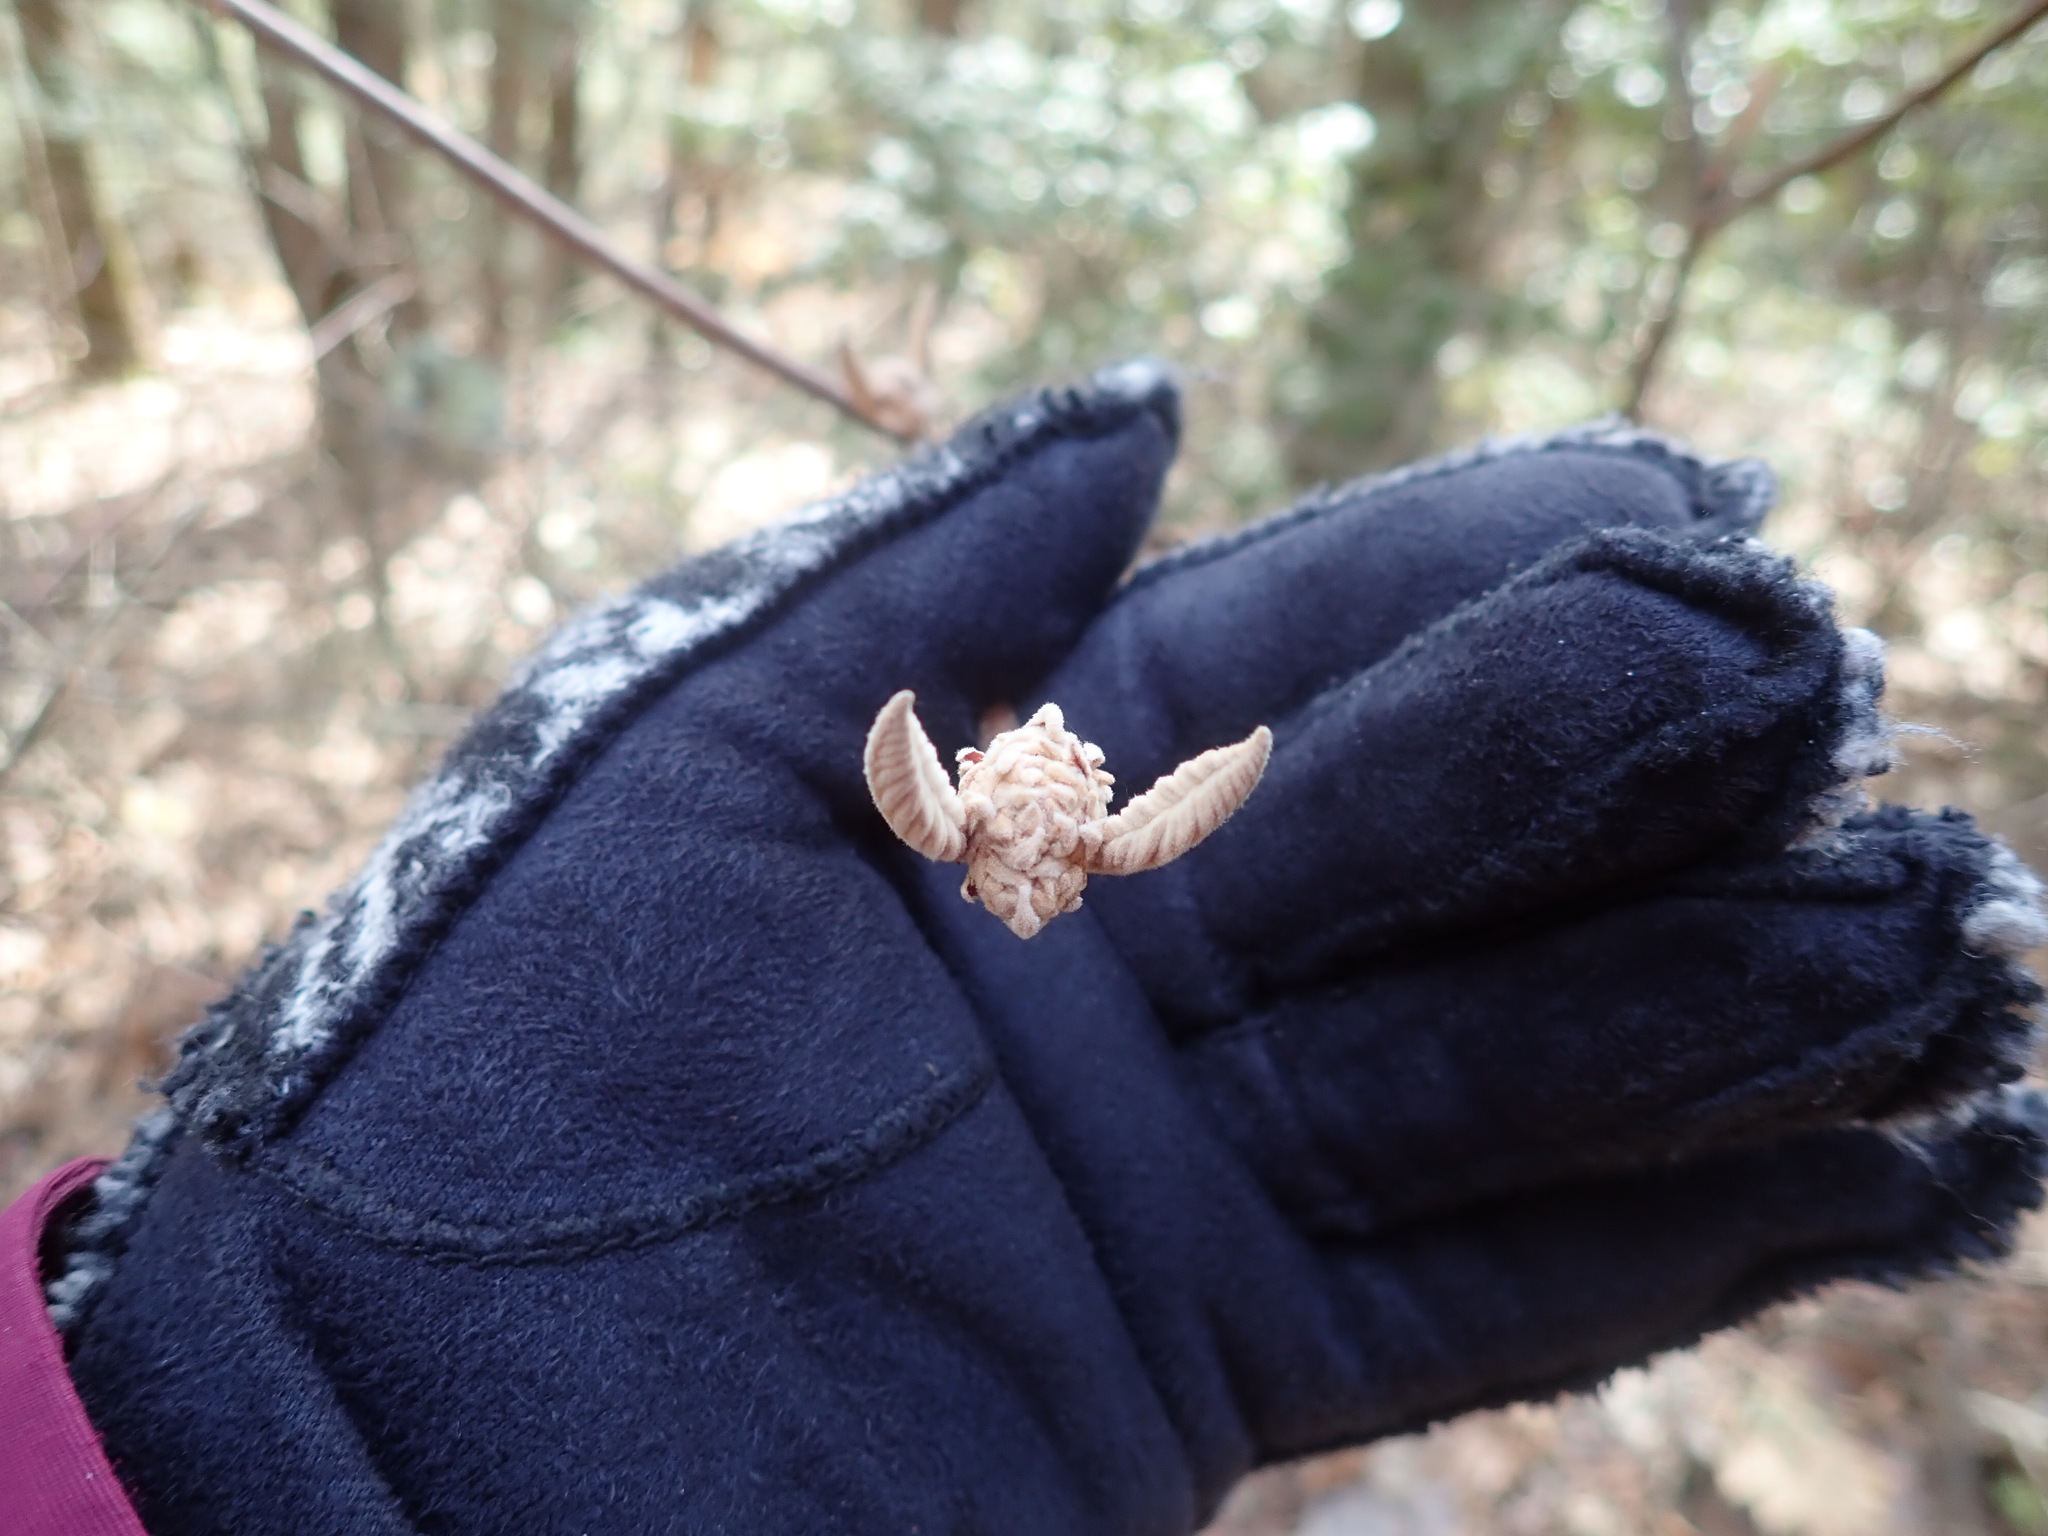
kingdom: Plantae
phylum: Tracheophyta
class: Magnoliopsida
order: Dipsacales
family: Viburnaceae
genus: Viburnum
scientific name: Viburnum lantanoides
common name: Hobblebush
